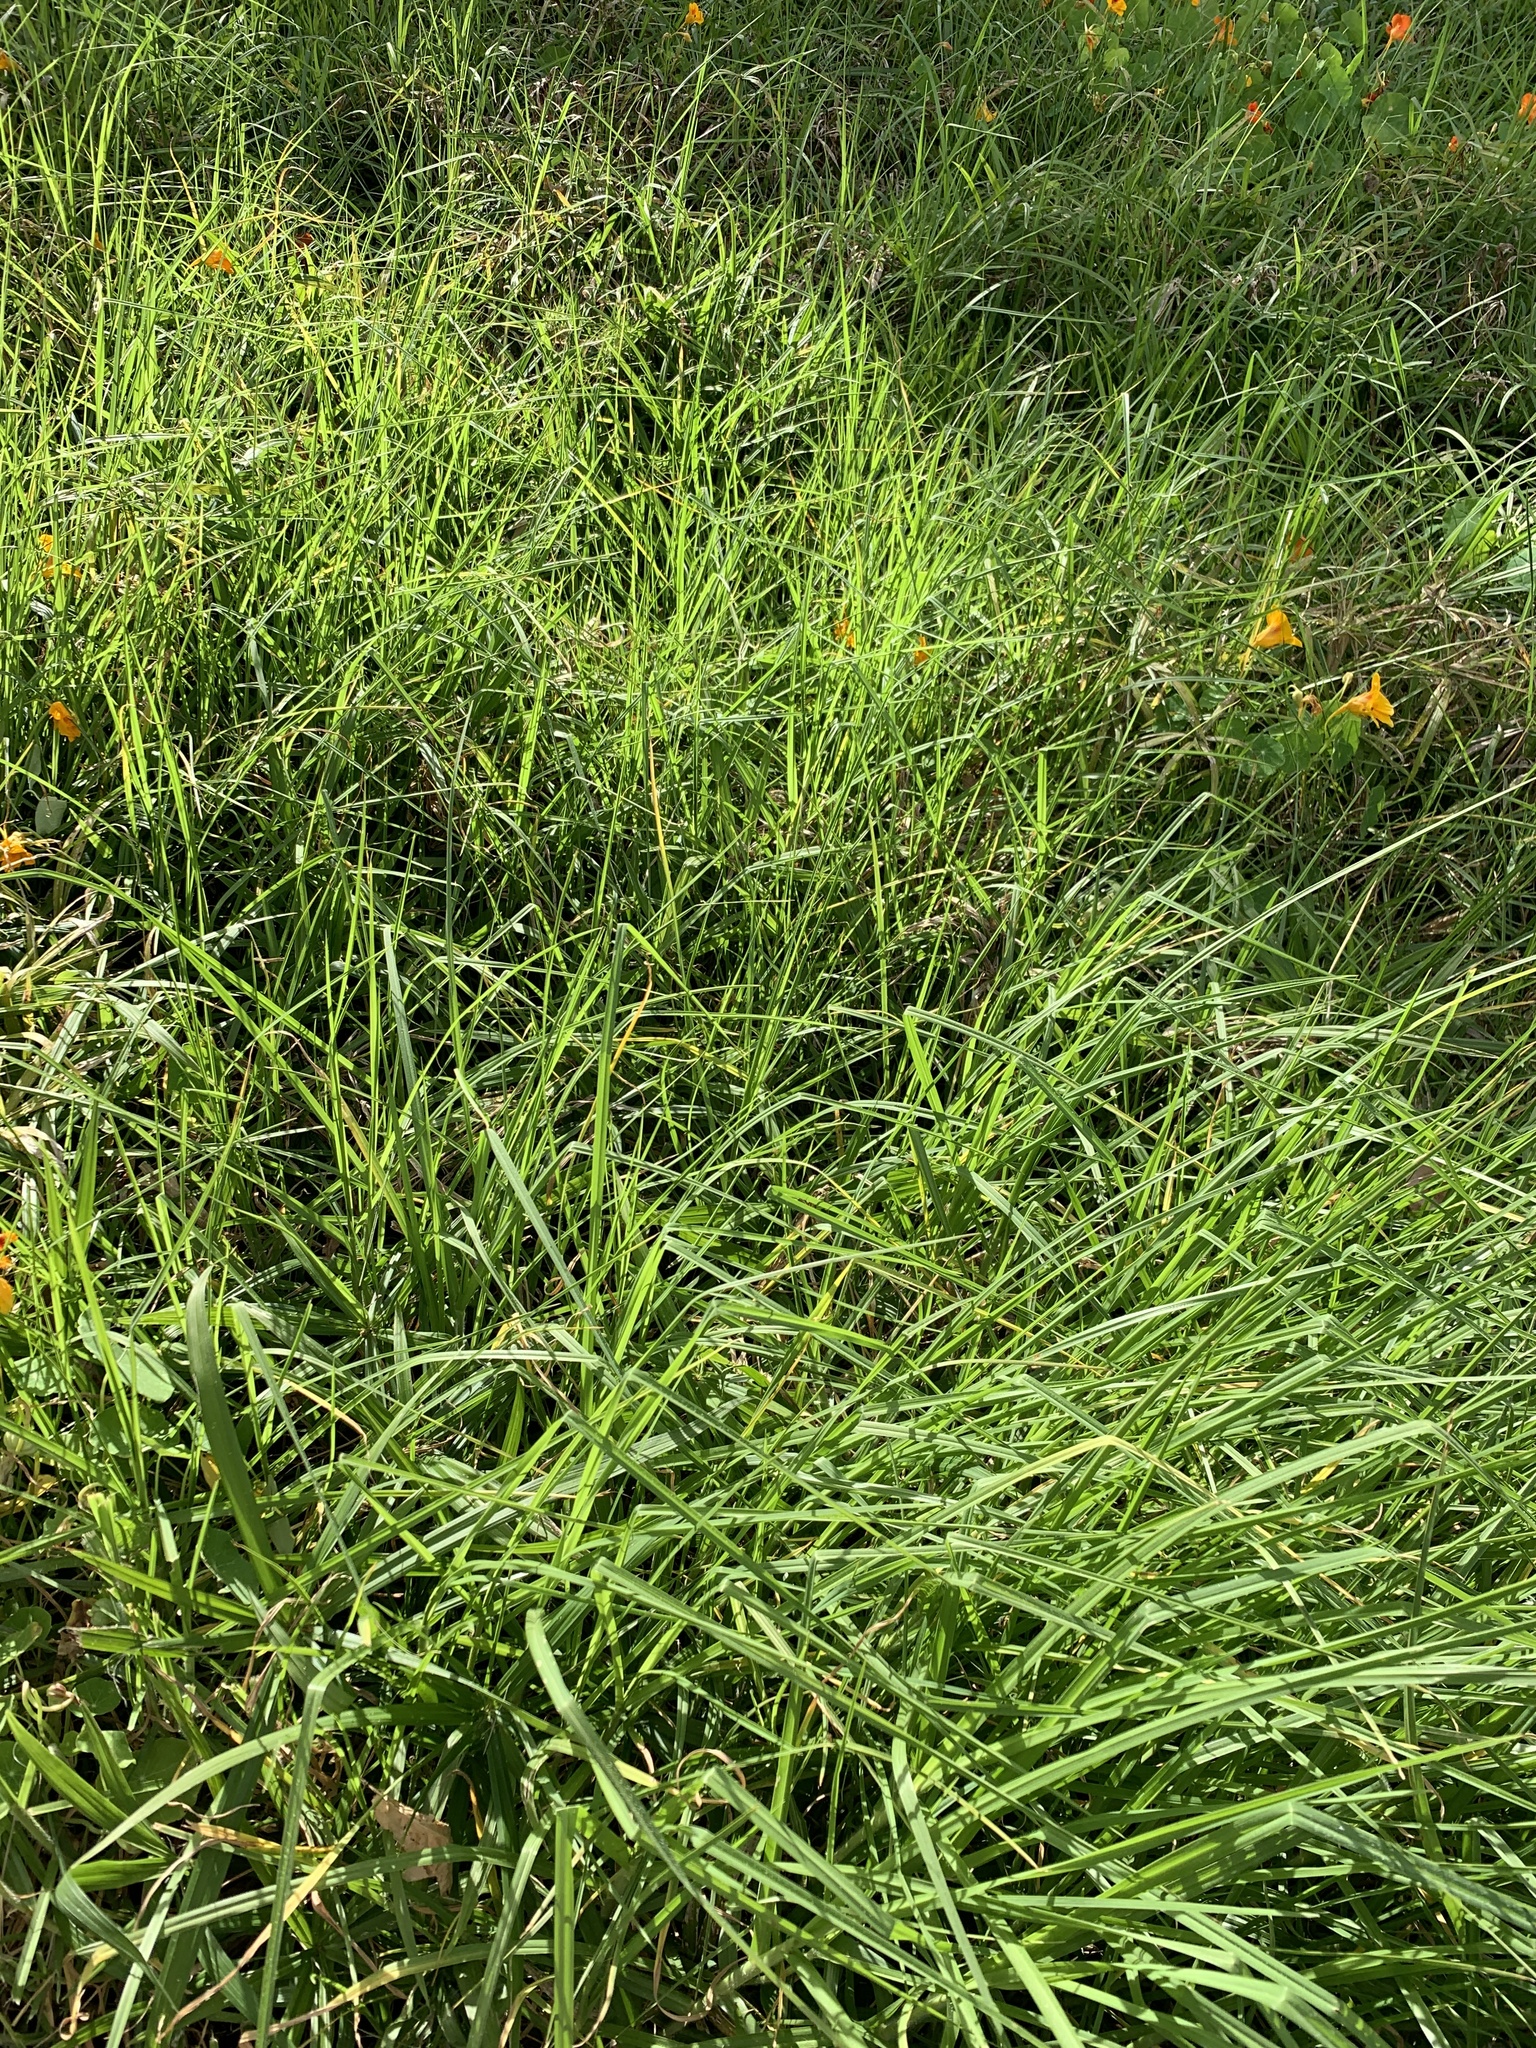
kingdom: Plantae
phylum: Tracheophyta
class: Liliopsida
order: Poales
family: Poaceae
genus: Cenchrus
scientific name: Cenchrus clandestinus
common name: Kikuyugrass
